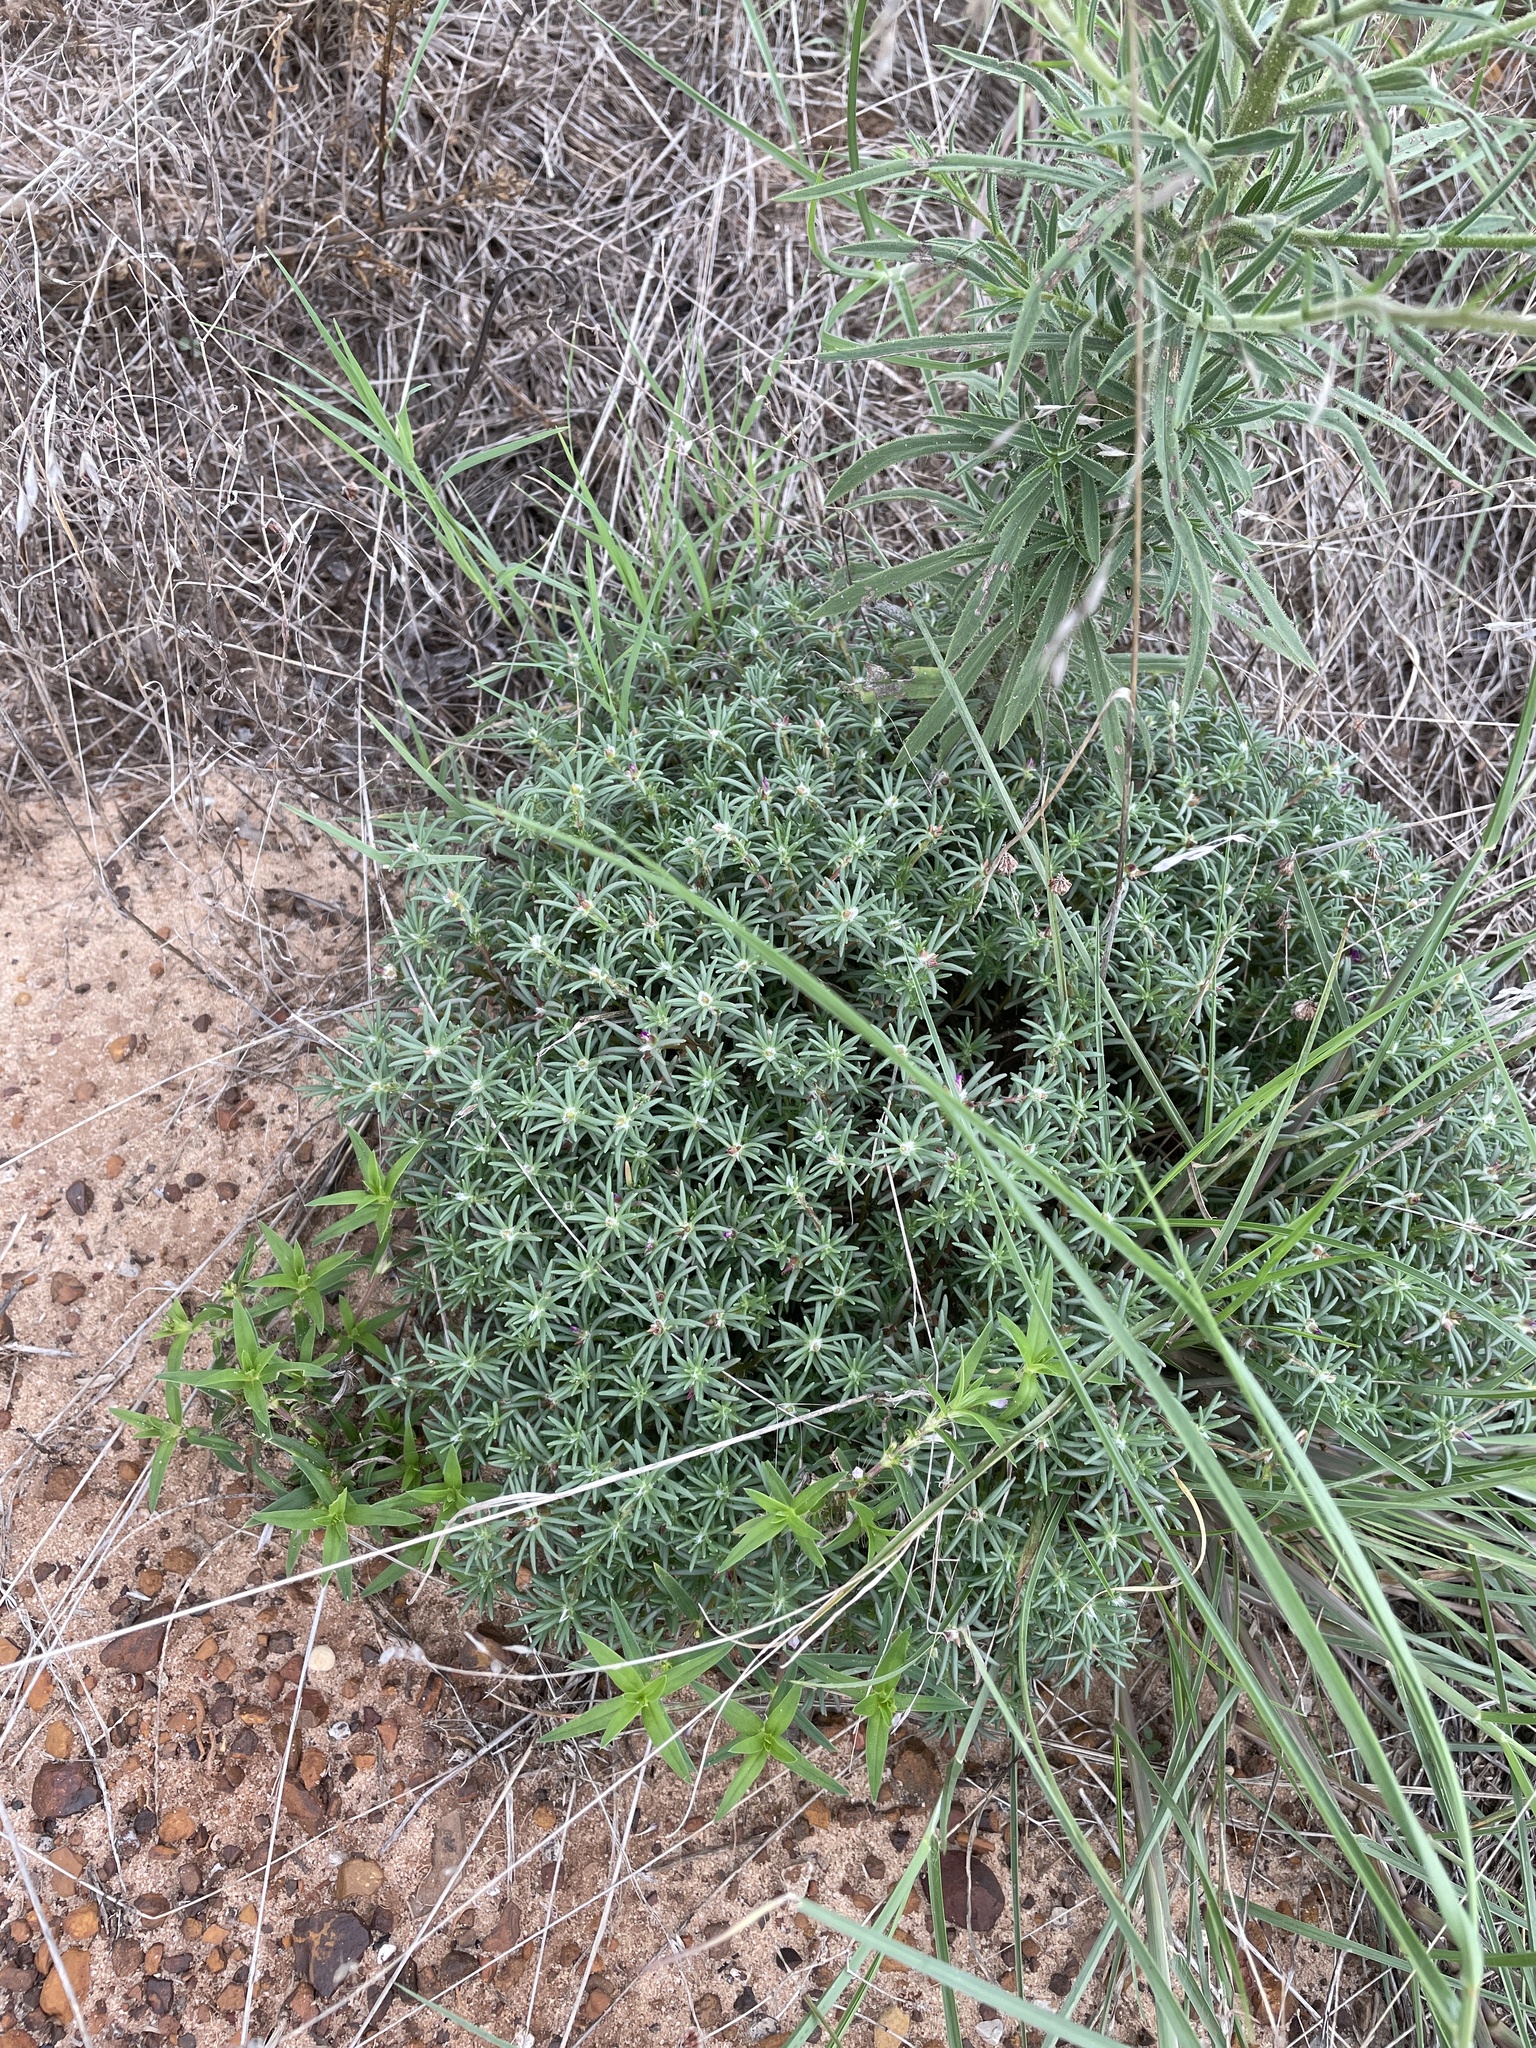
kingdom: Plantae
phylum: Tracheophyta
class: Magnoliopsida
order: Caryophyllales
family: Portulacaceae
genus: Portulaca
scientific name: Portulaca pilosa
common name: Kiss me quick
